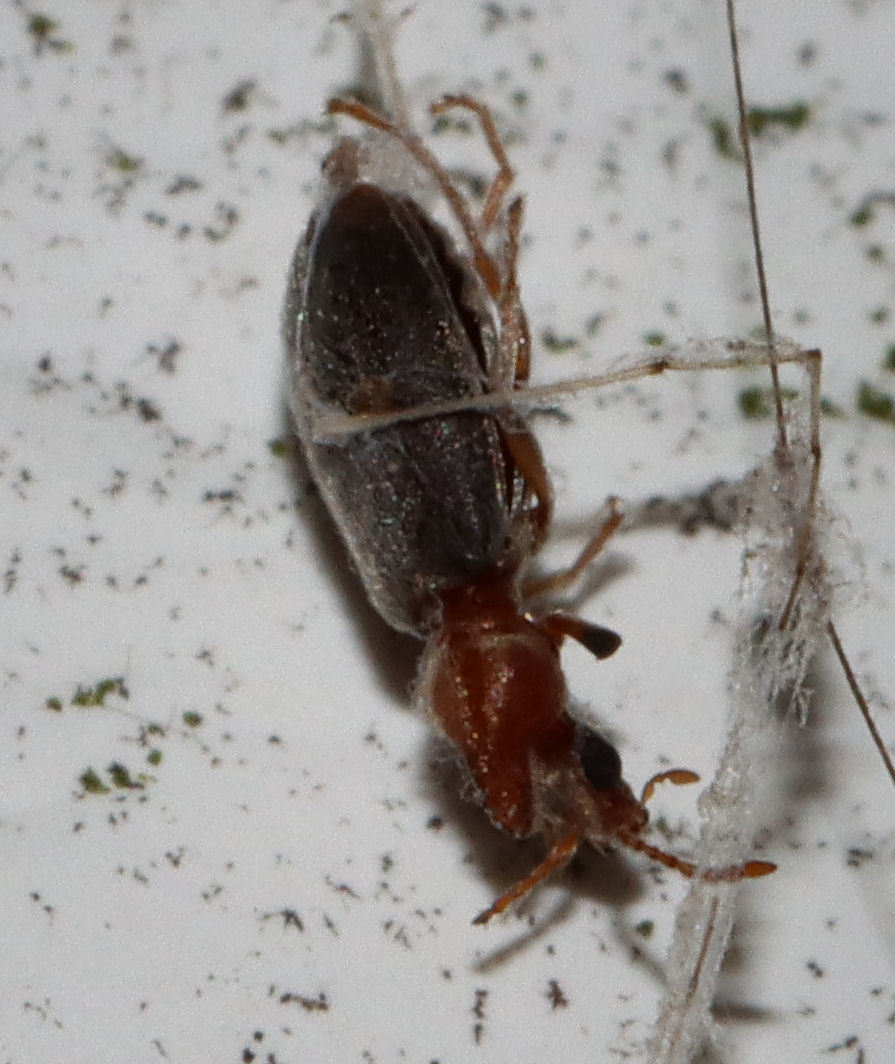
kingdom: Animalia
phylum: Arthropoda
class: Insecta
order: Coleoptera
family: Anthicidae
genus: Notoxus
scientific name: Notoxus murinipennis
